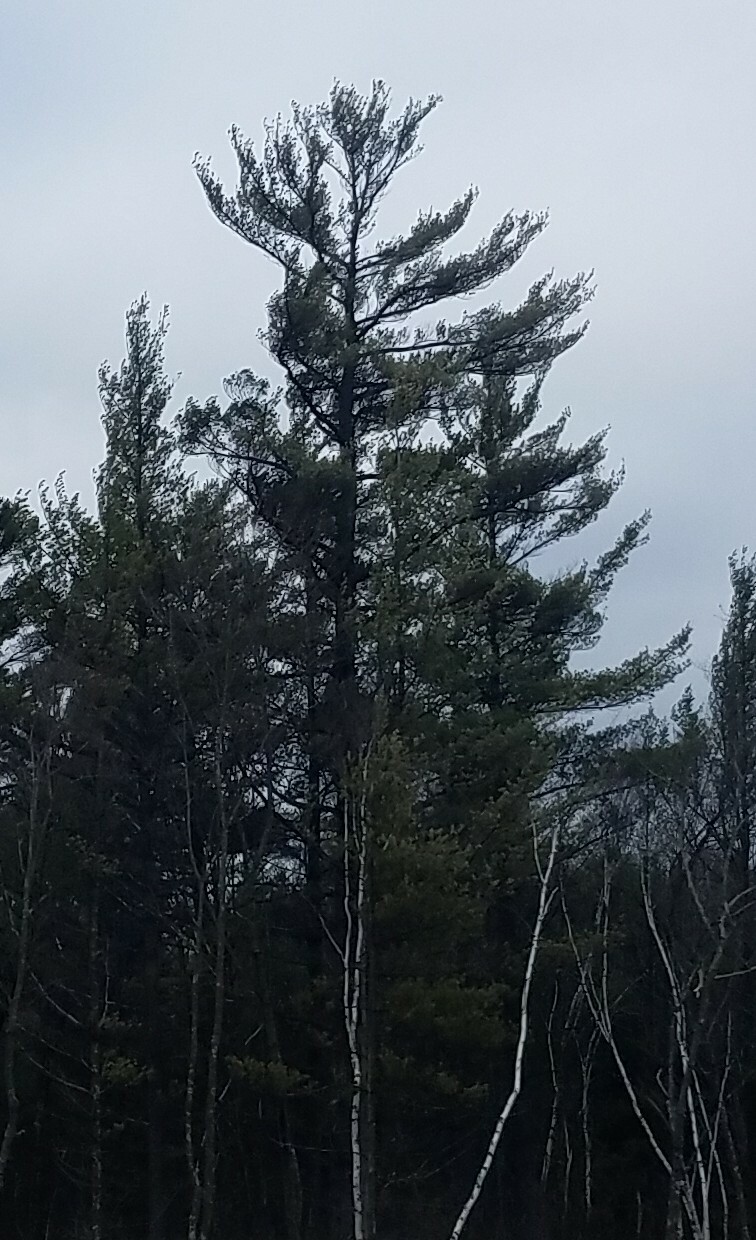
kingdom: Plantae
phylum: Tracheophyta
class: Pinopsida
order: Pinales
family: Pinaceae
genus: Pinus
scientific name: Pinus strobus
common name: Weymouth pine
